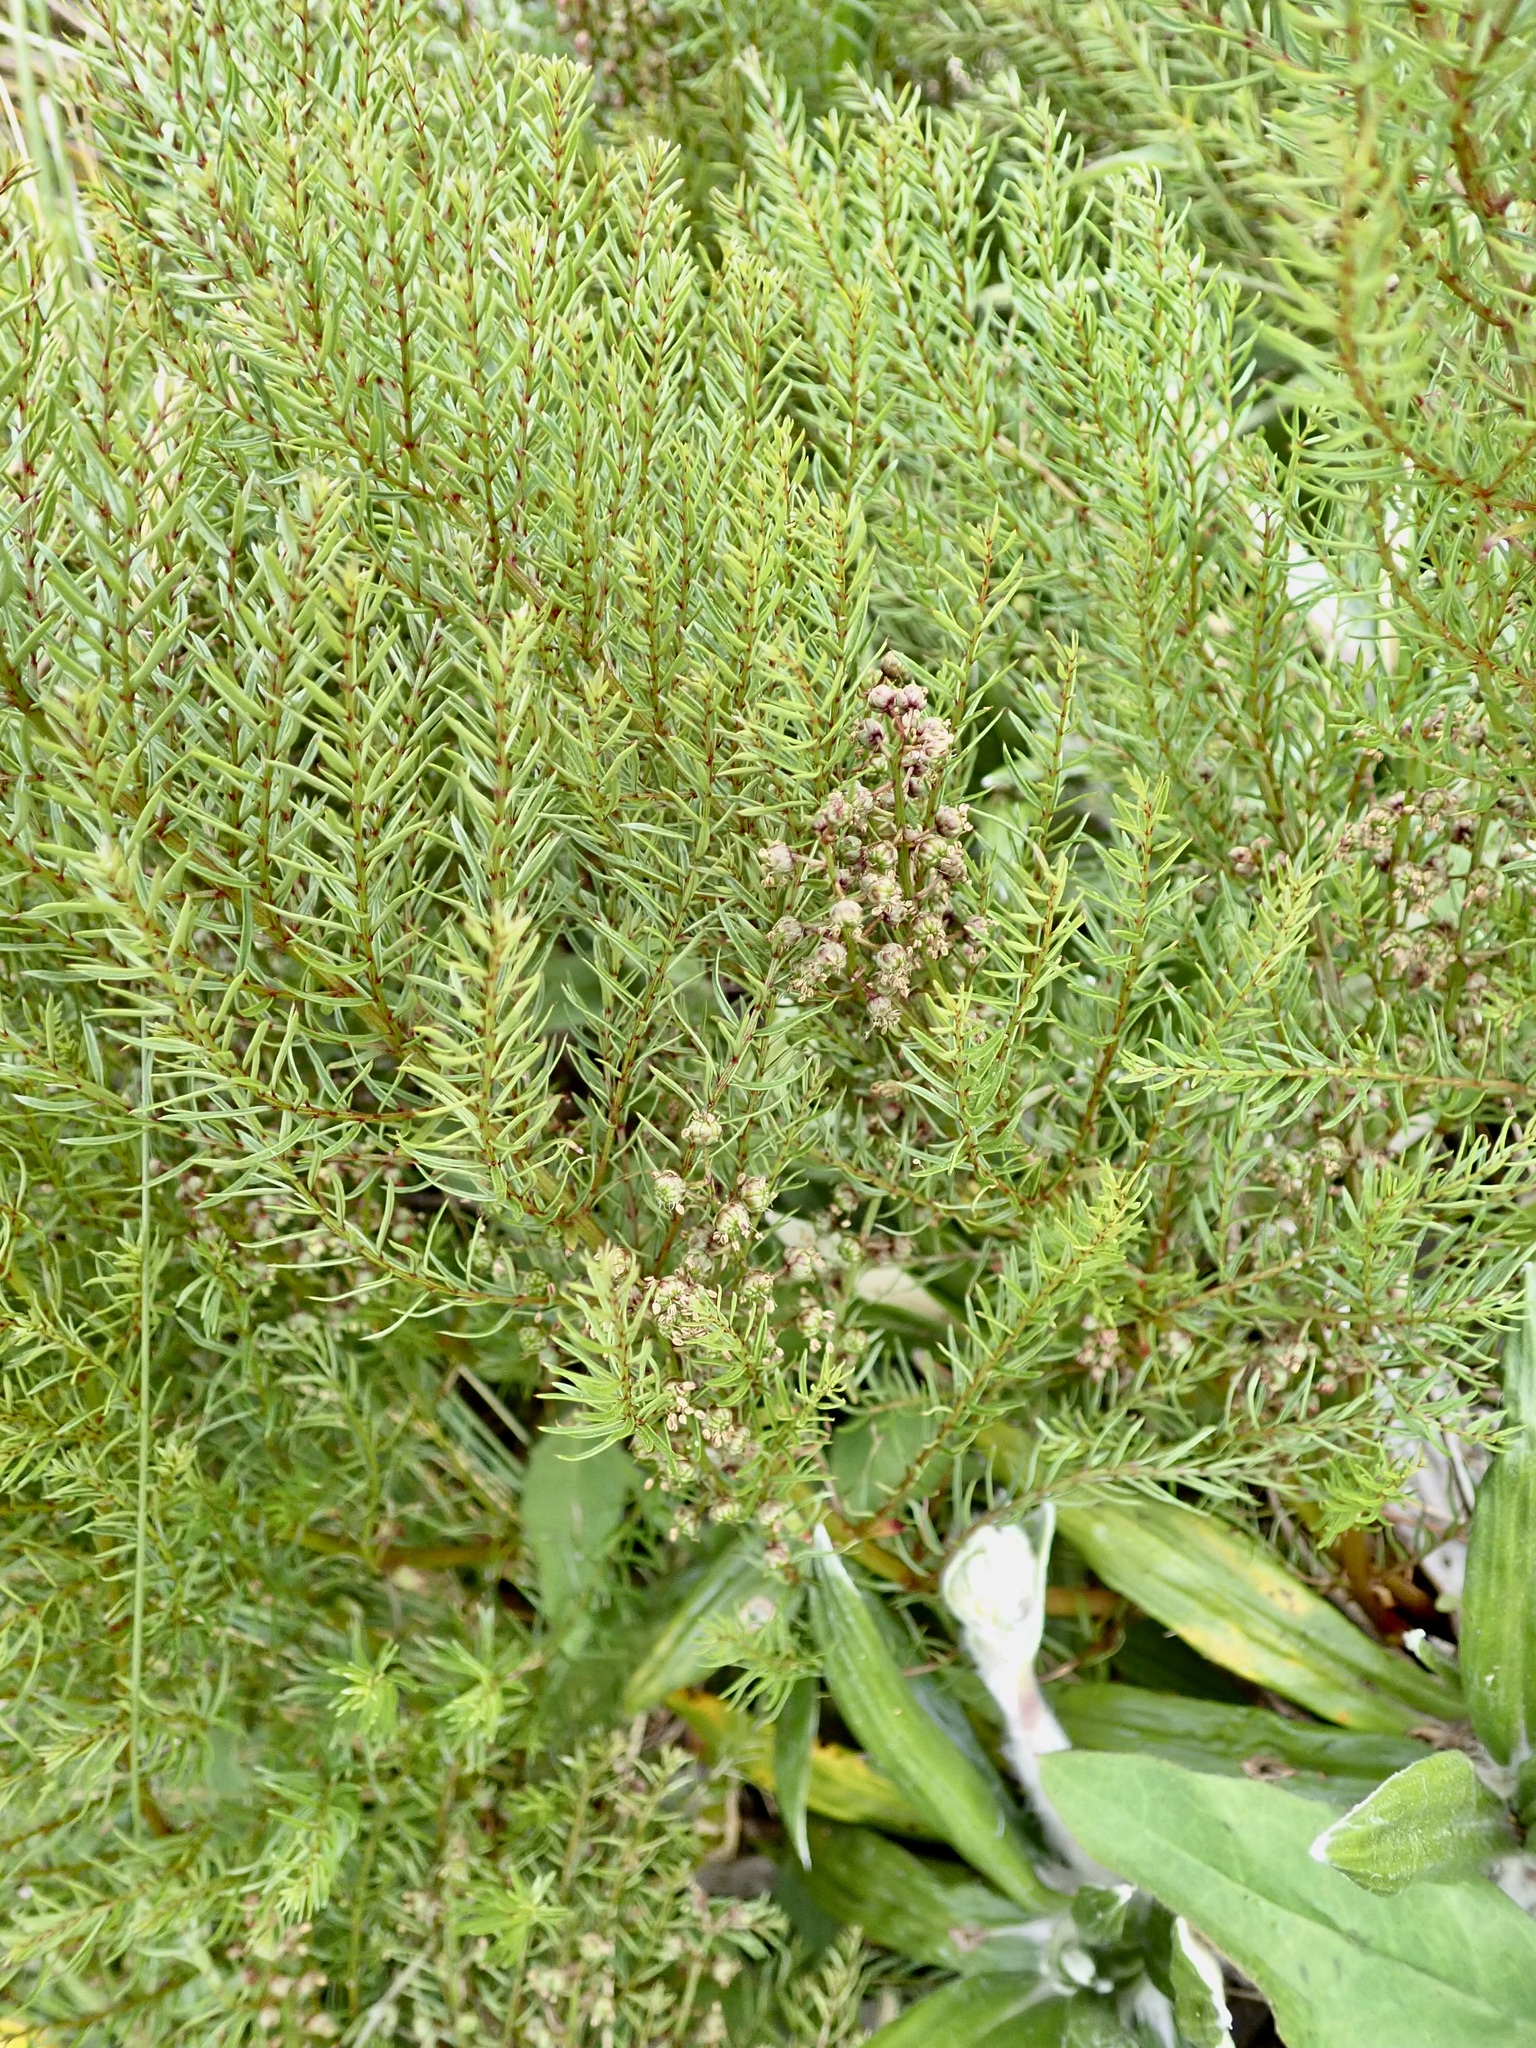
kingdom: Plantae
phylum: Tracheophyta
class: Magnoliopsida
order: Cucurbitales
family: Coriariaceae
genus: Coriaria
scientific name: Coriaria angustissima
